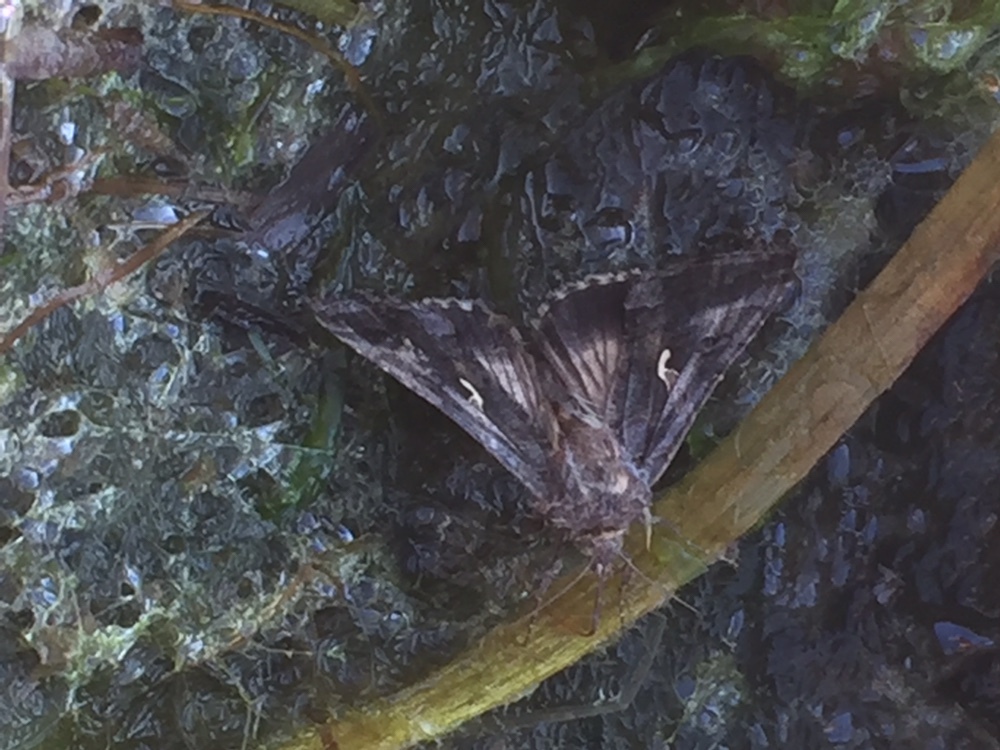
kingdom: Animalia
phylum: Arthropoda
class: Insecta
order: Lepidoptera
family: Noctuidae
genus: Autographa
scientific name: Autographa gamma
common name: Silver y
